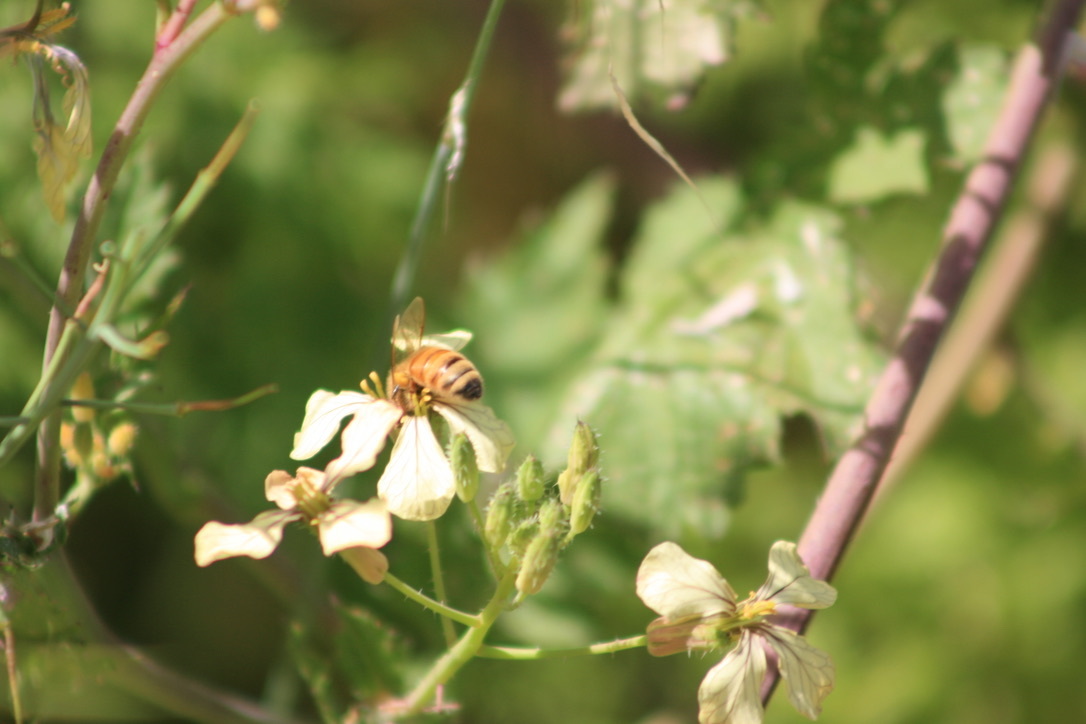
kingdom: Animalia
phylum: Arthropoda
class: Insecta
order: Hymenoptera
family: Apidae
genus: Apis
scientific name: Apis mellifera
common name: Honey bee
